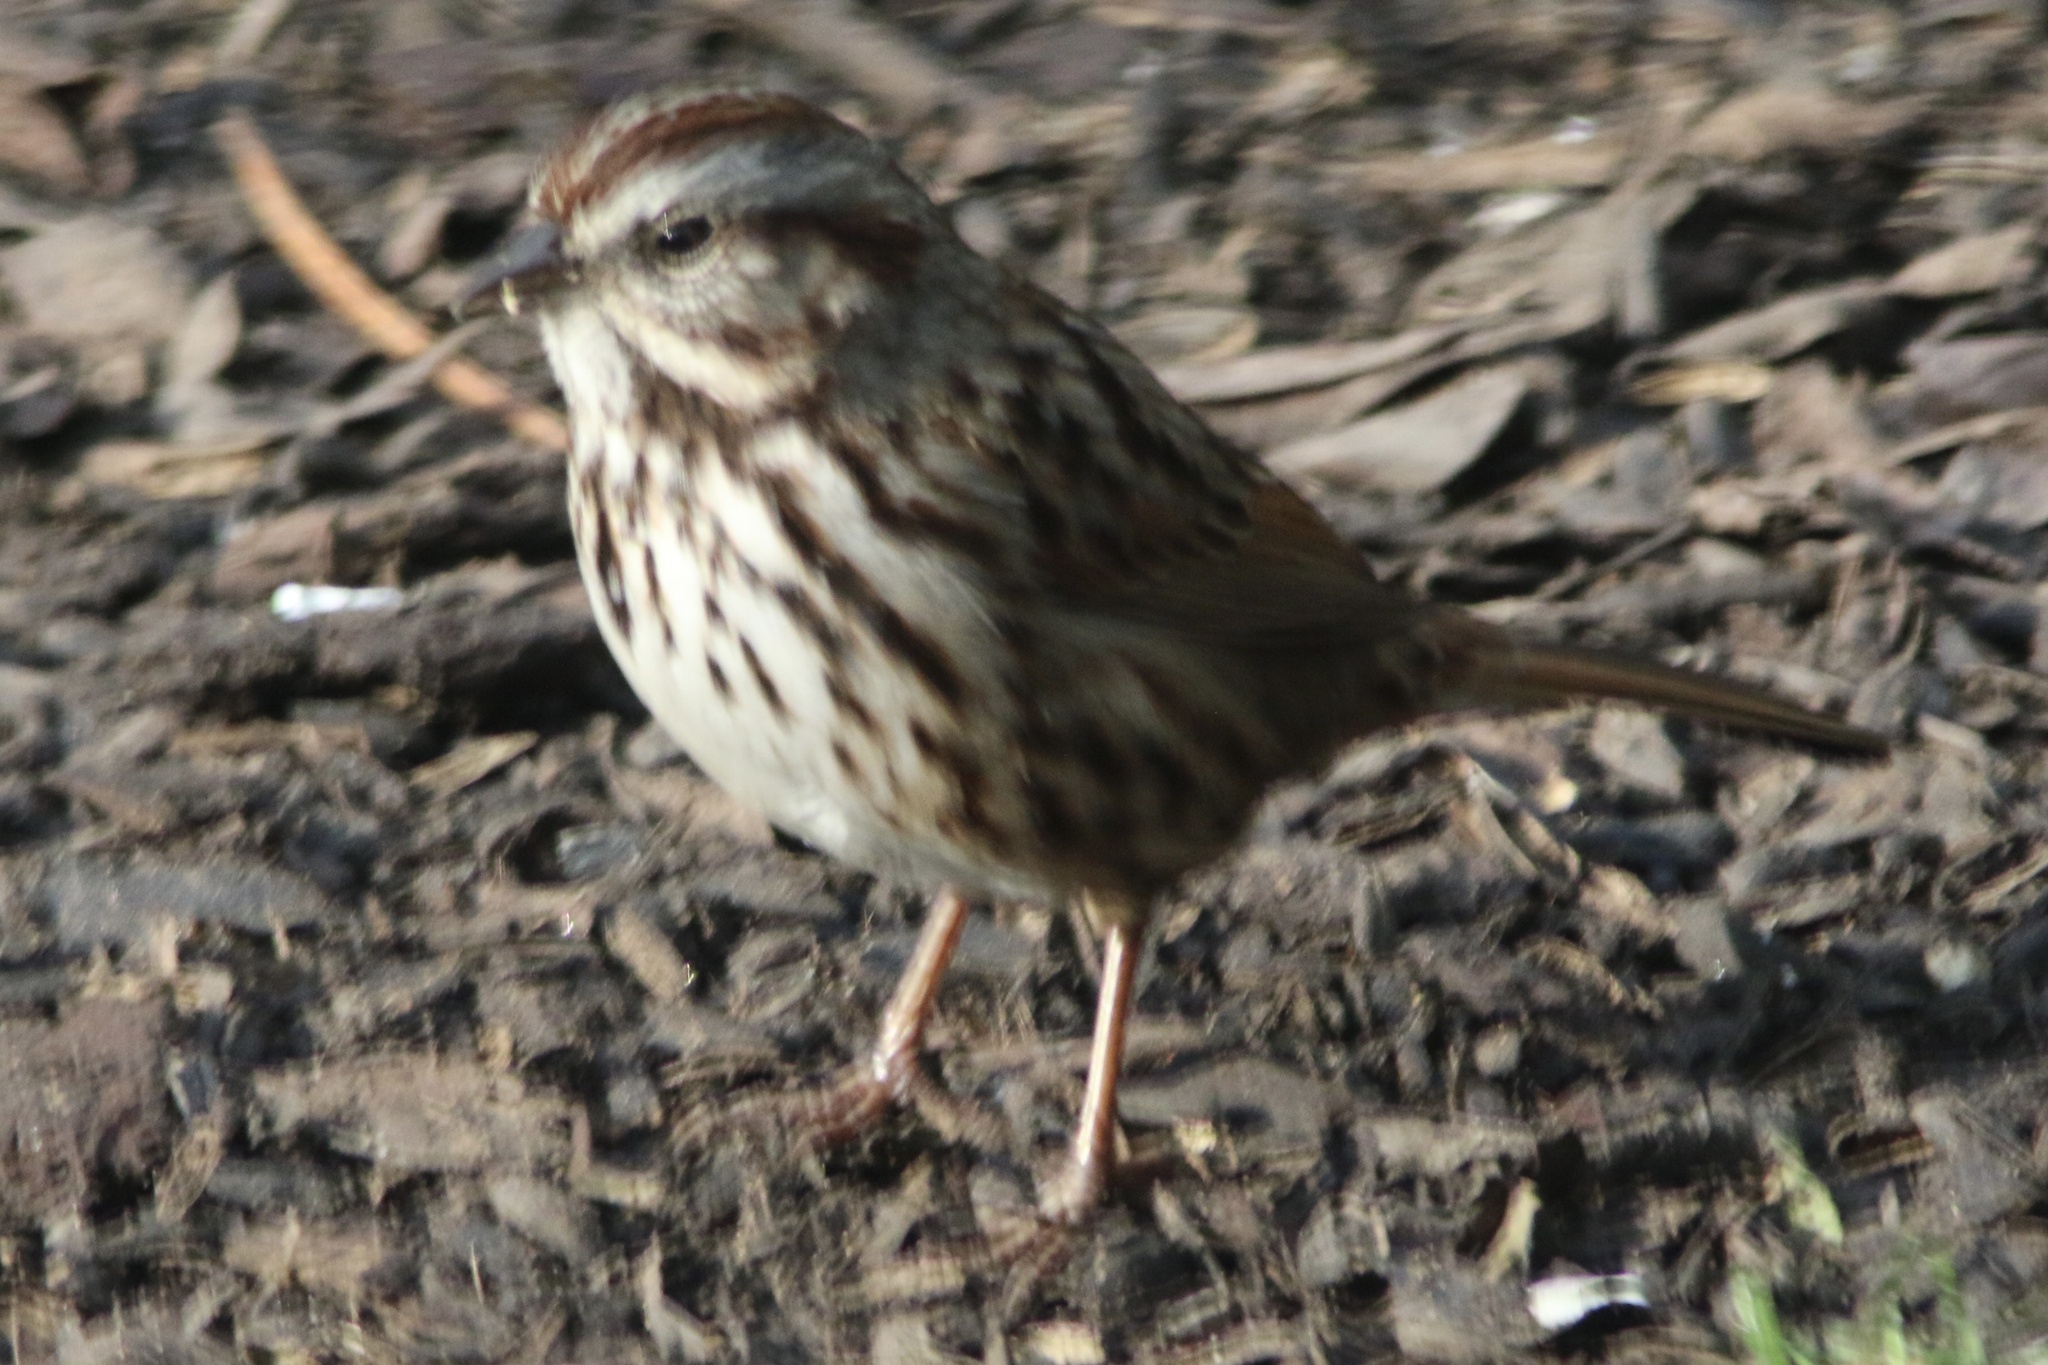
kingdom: Animalia
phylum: Chordata
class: Aves
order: Passeriformes
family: Passerellidae
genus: Melospiza
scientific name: Melospiza melodia
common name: Song sparrow
